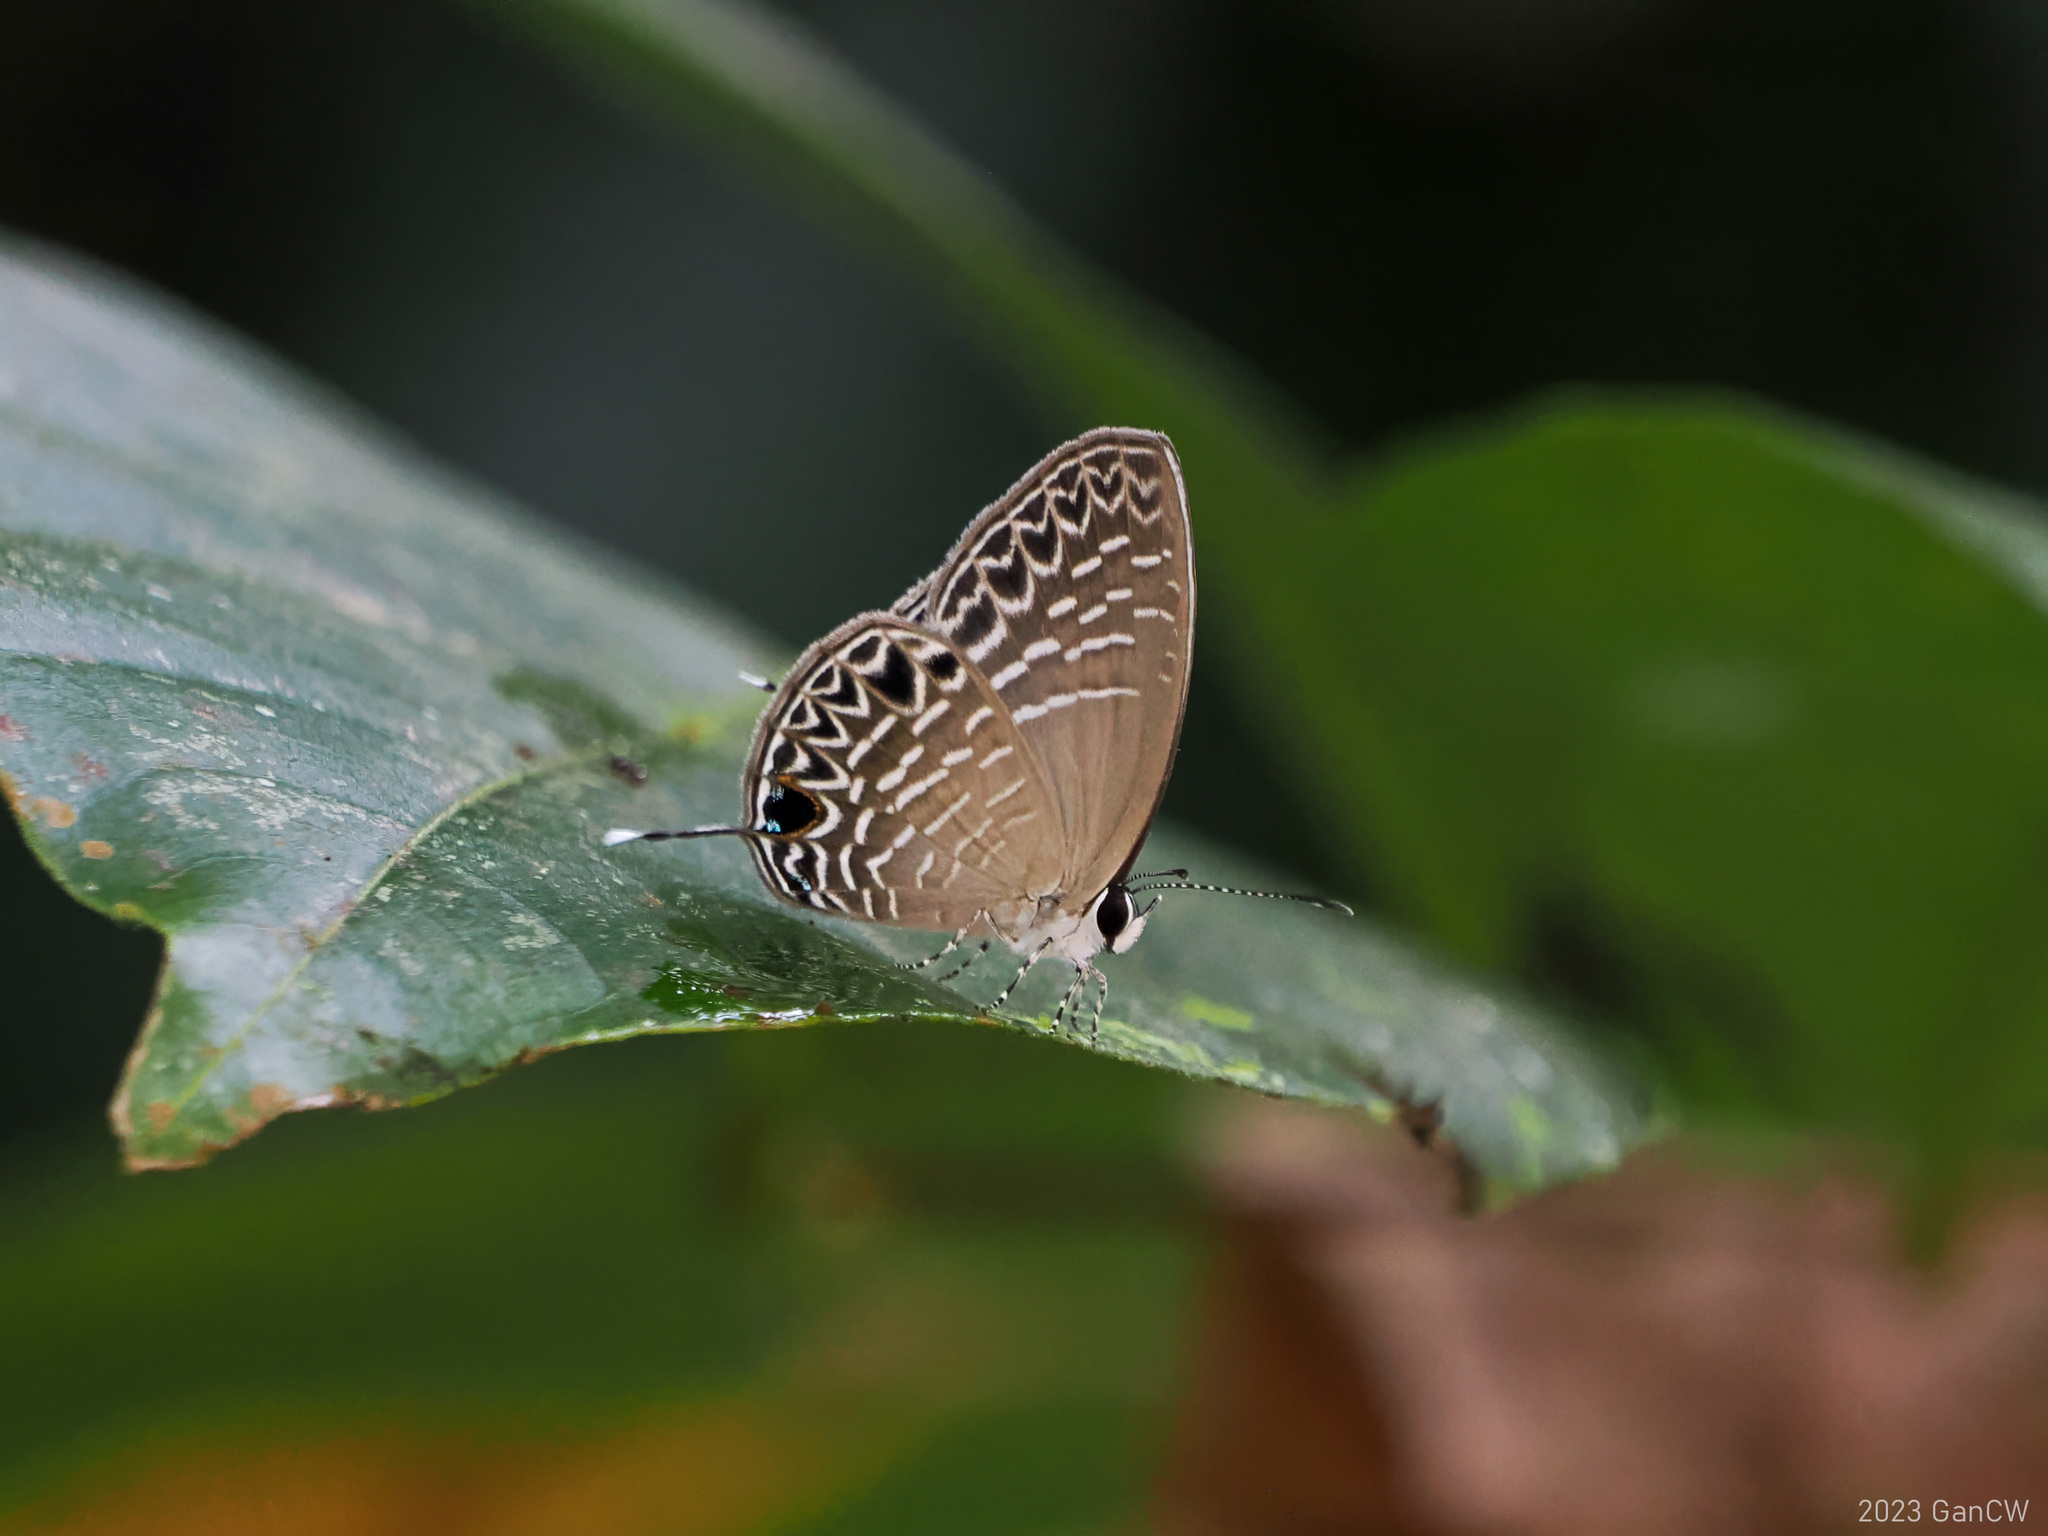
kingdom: Animalia
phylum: Arthropoda
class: Insecta
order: Lepidoptera
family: Lycaenidae
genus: Jamides
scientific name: Jamides
